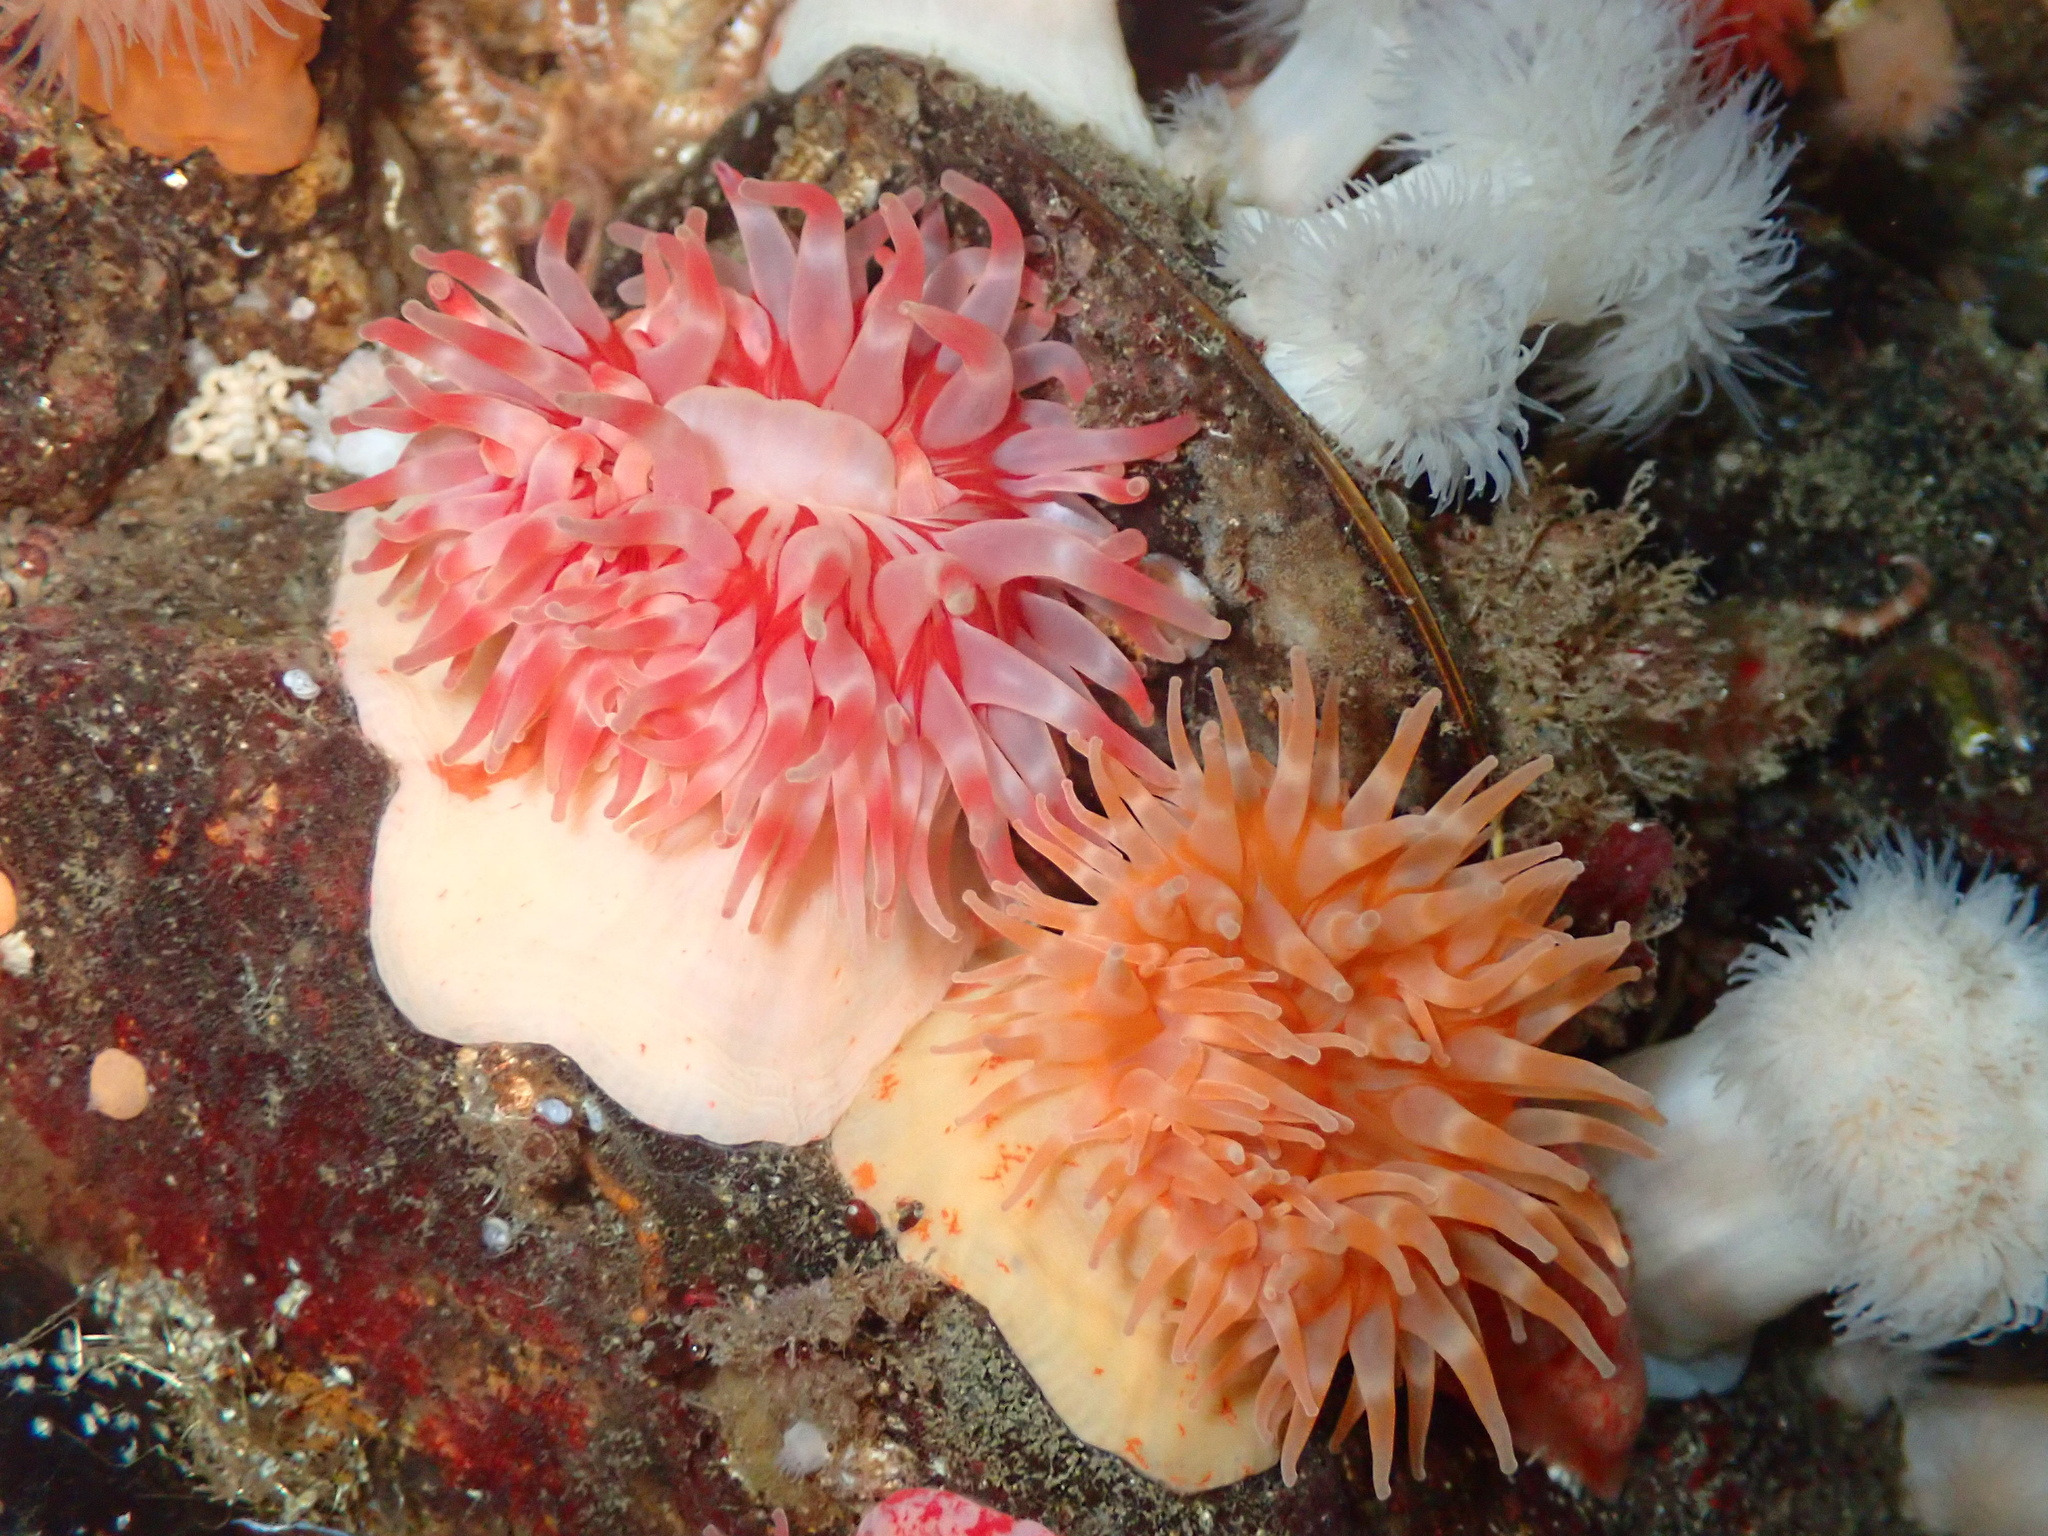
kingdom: Animalia
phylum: Cnidaria
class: Anthozoa
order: Actiniaria
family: Actinostolidae
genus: Stomphia
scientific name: Stomphia coccinea
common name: Spotted swimming anemone
